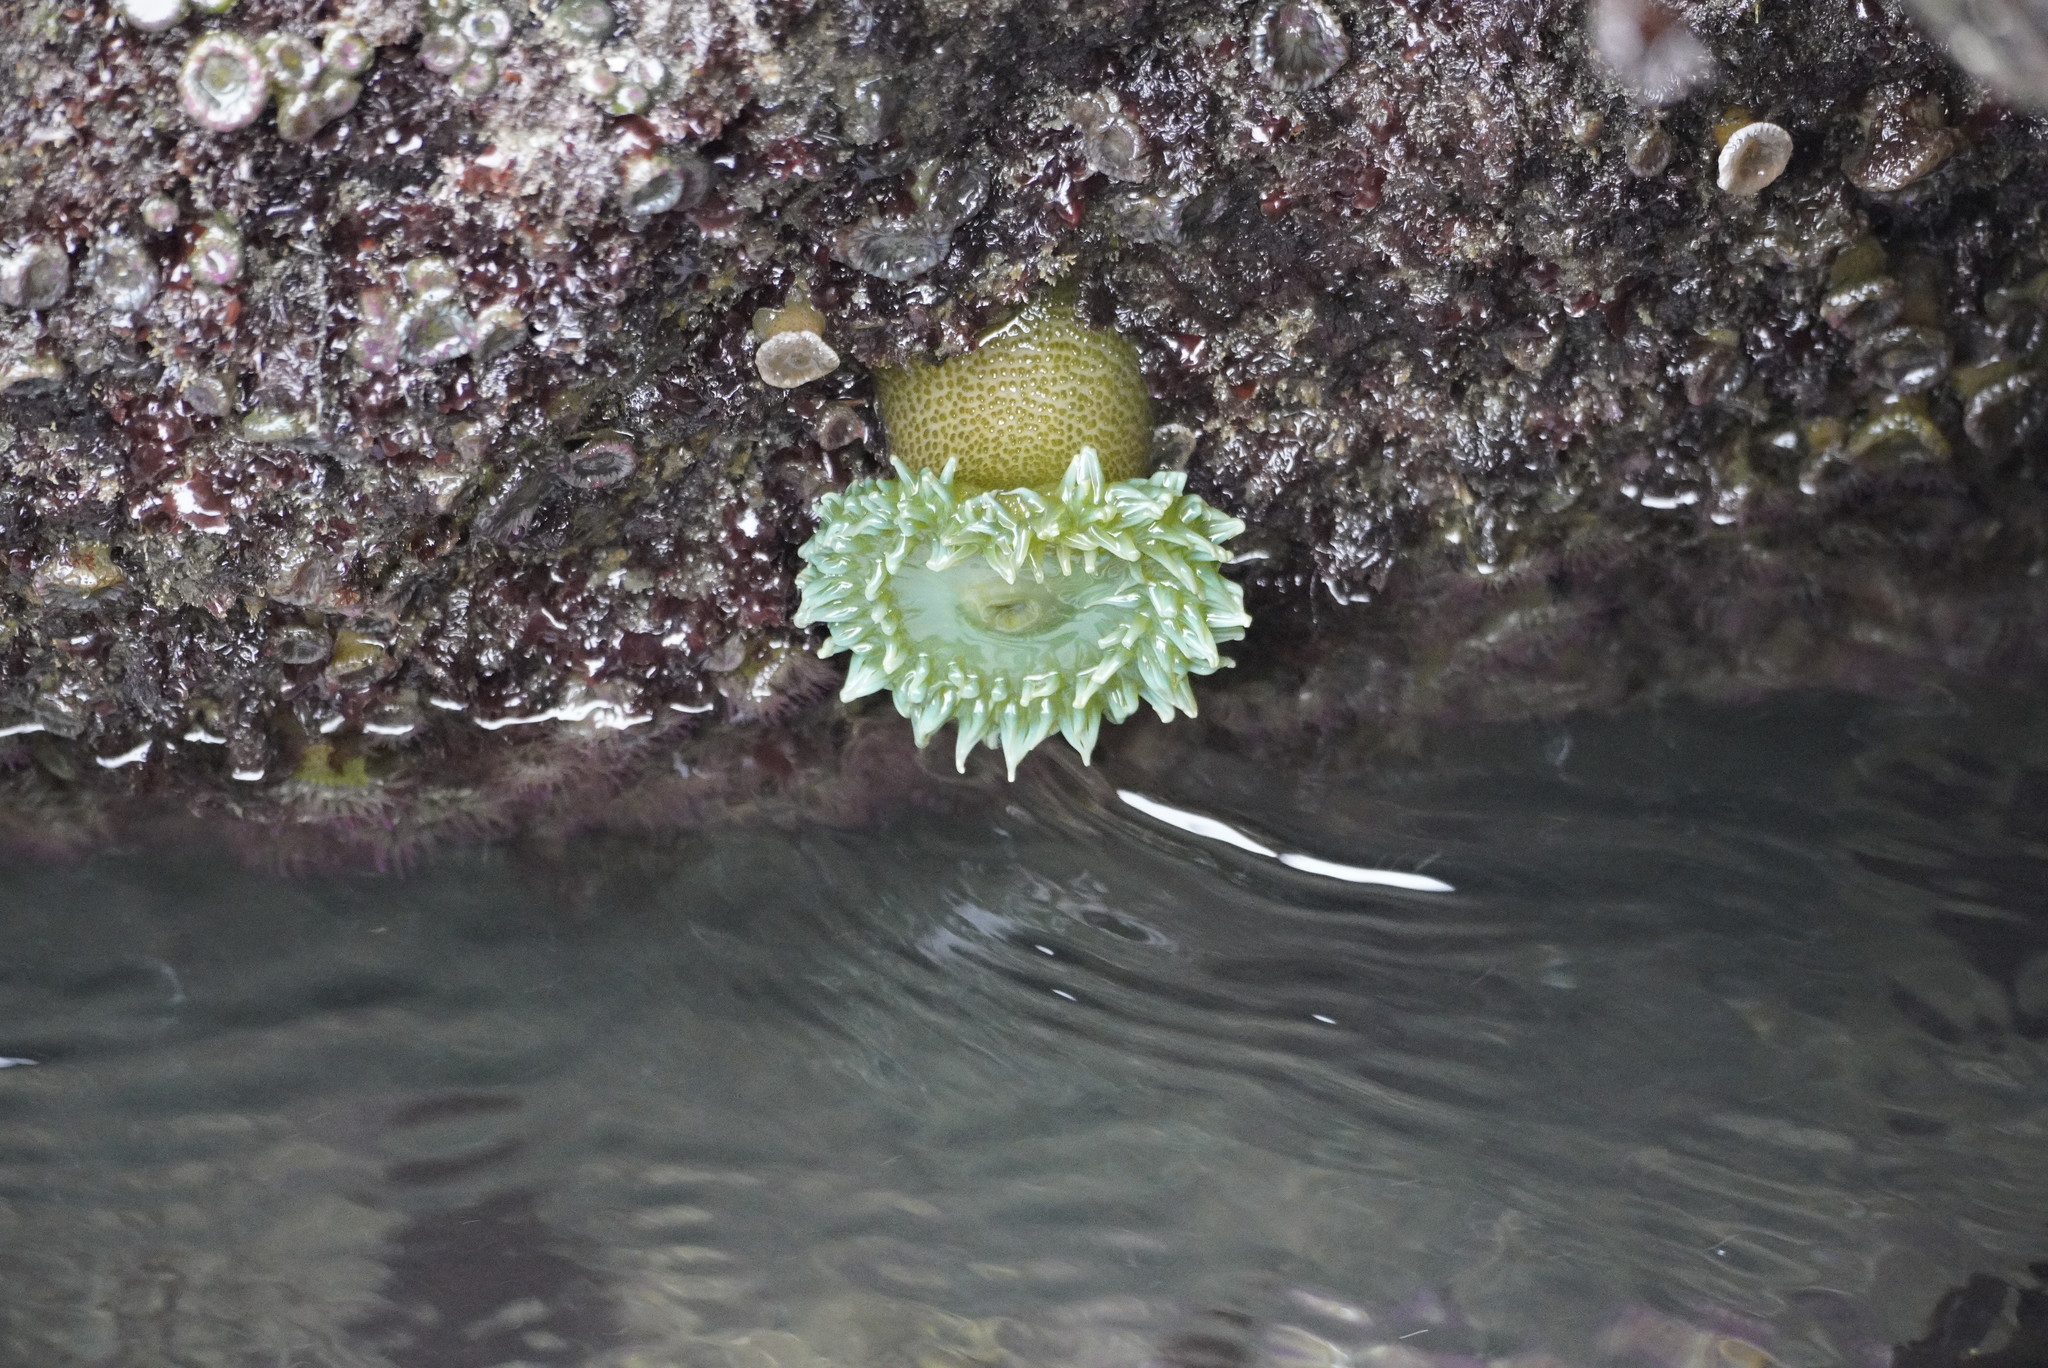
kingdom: Animalia
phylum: Cnidaria
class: Anthozoa
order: Actiniaria
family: Actiniidae
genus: Anthopleura
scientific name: Anthopleura xanthogrammica
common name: Giant green anemone
